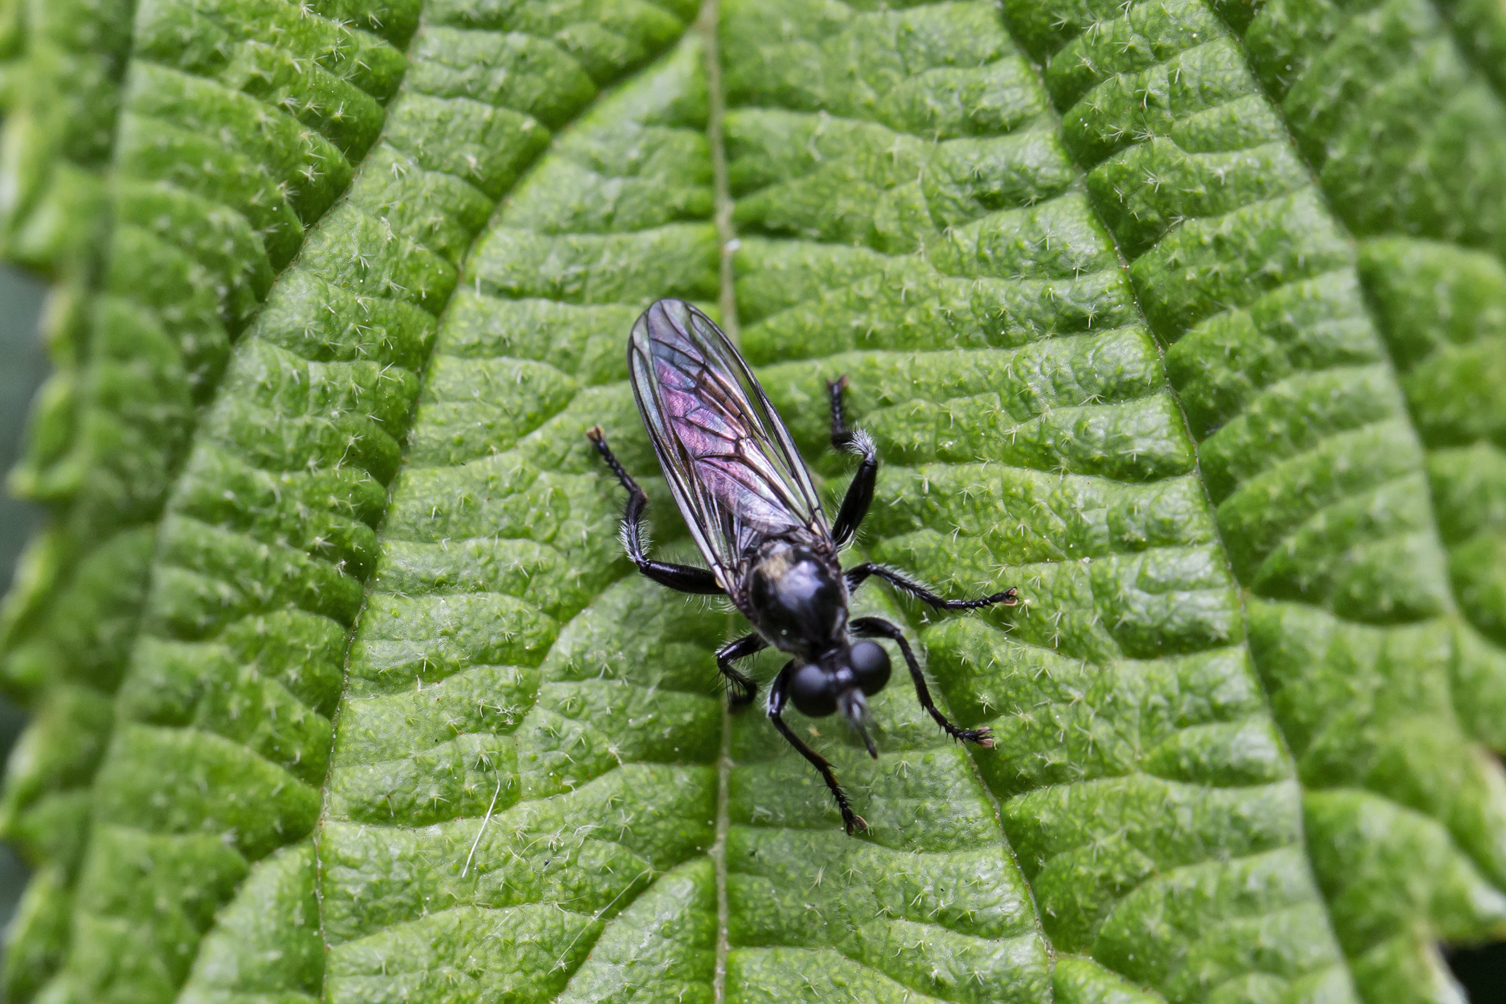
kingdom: Animalia
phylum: Arthropoda
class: Insecta
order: Diptera
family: Asilidae
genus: Laphria
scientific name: Laphria
